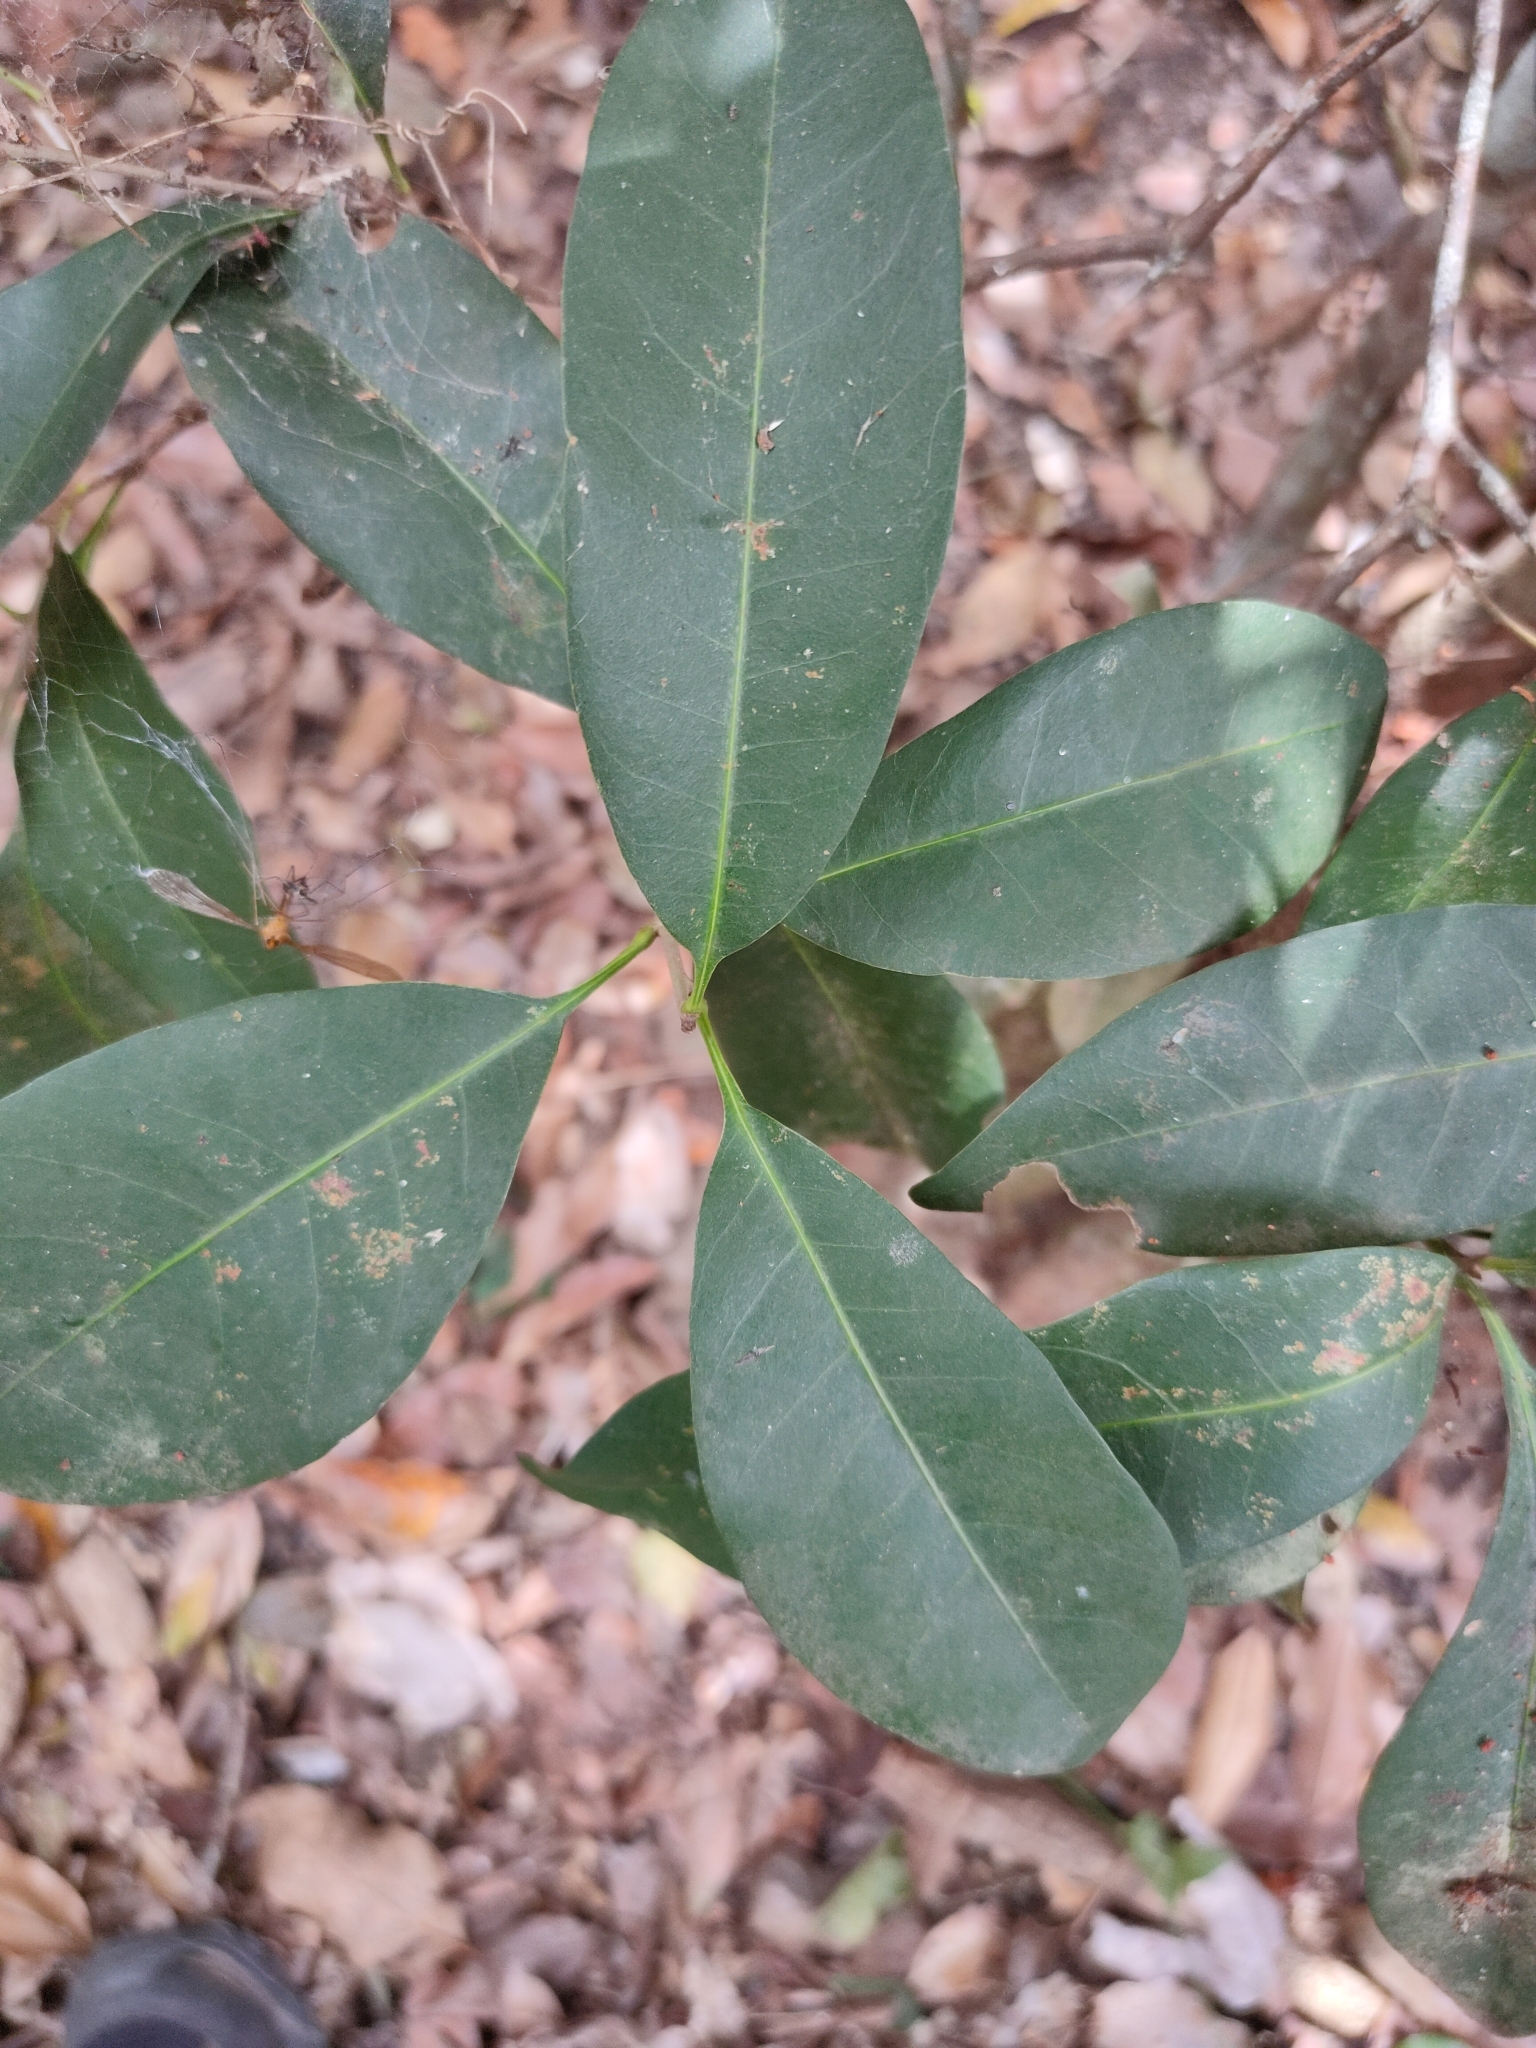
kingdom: Plantae
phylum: Tracheophyta
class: Magnoliopsida
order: Ericales
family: Sapotaceae
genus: Pleioluma
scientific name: Pleioluma queenslandica
